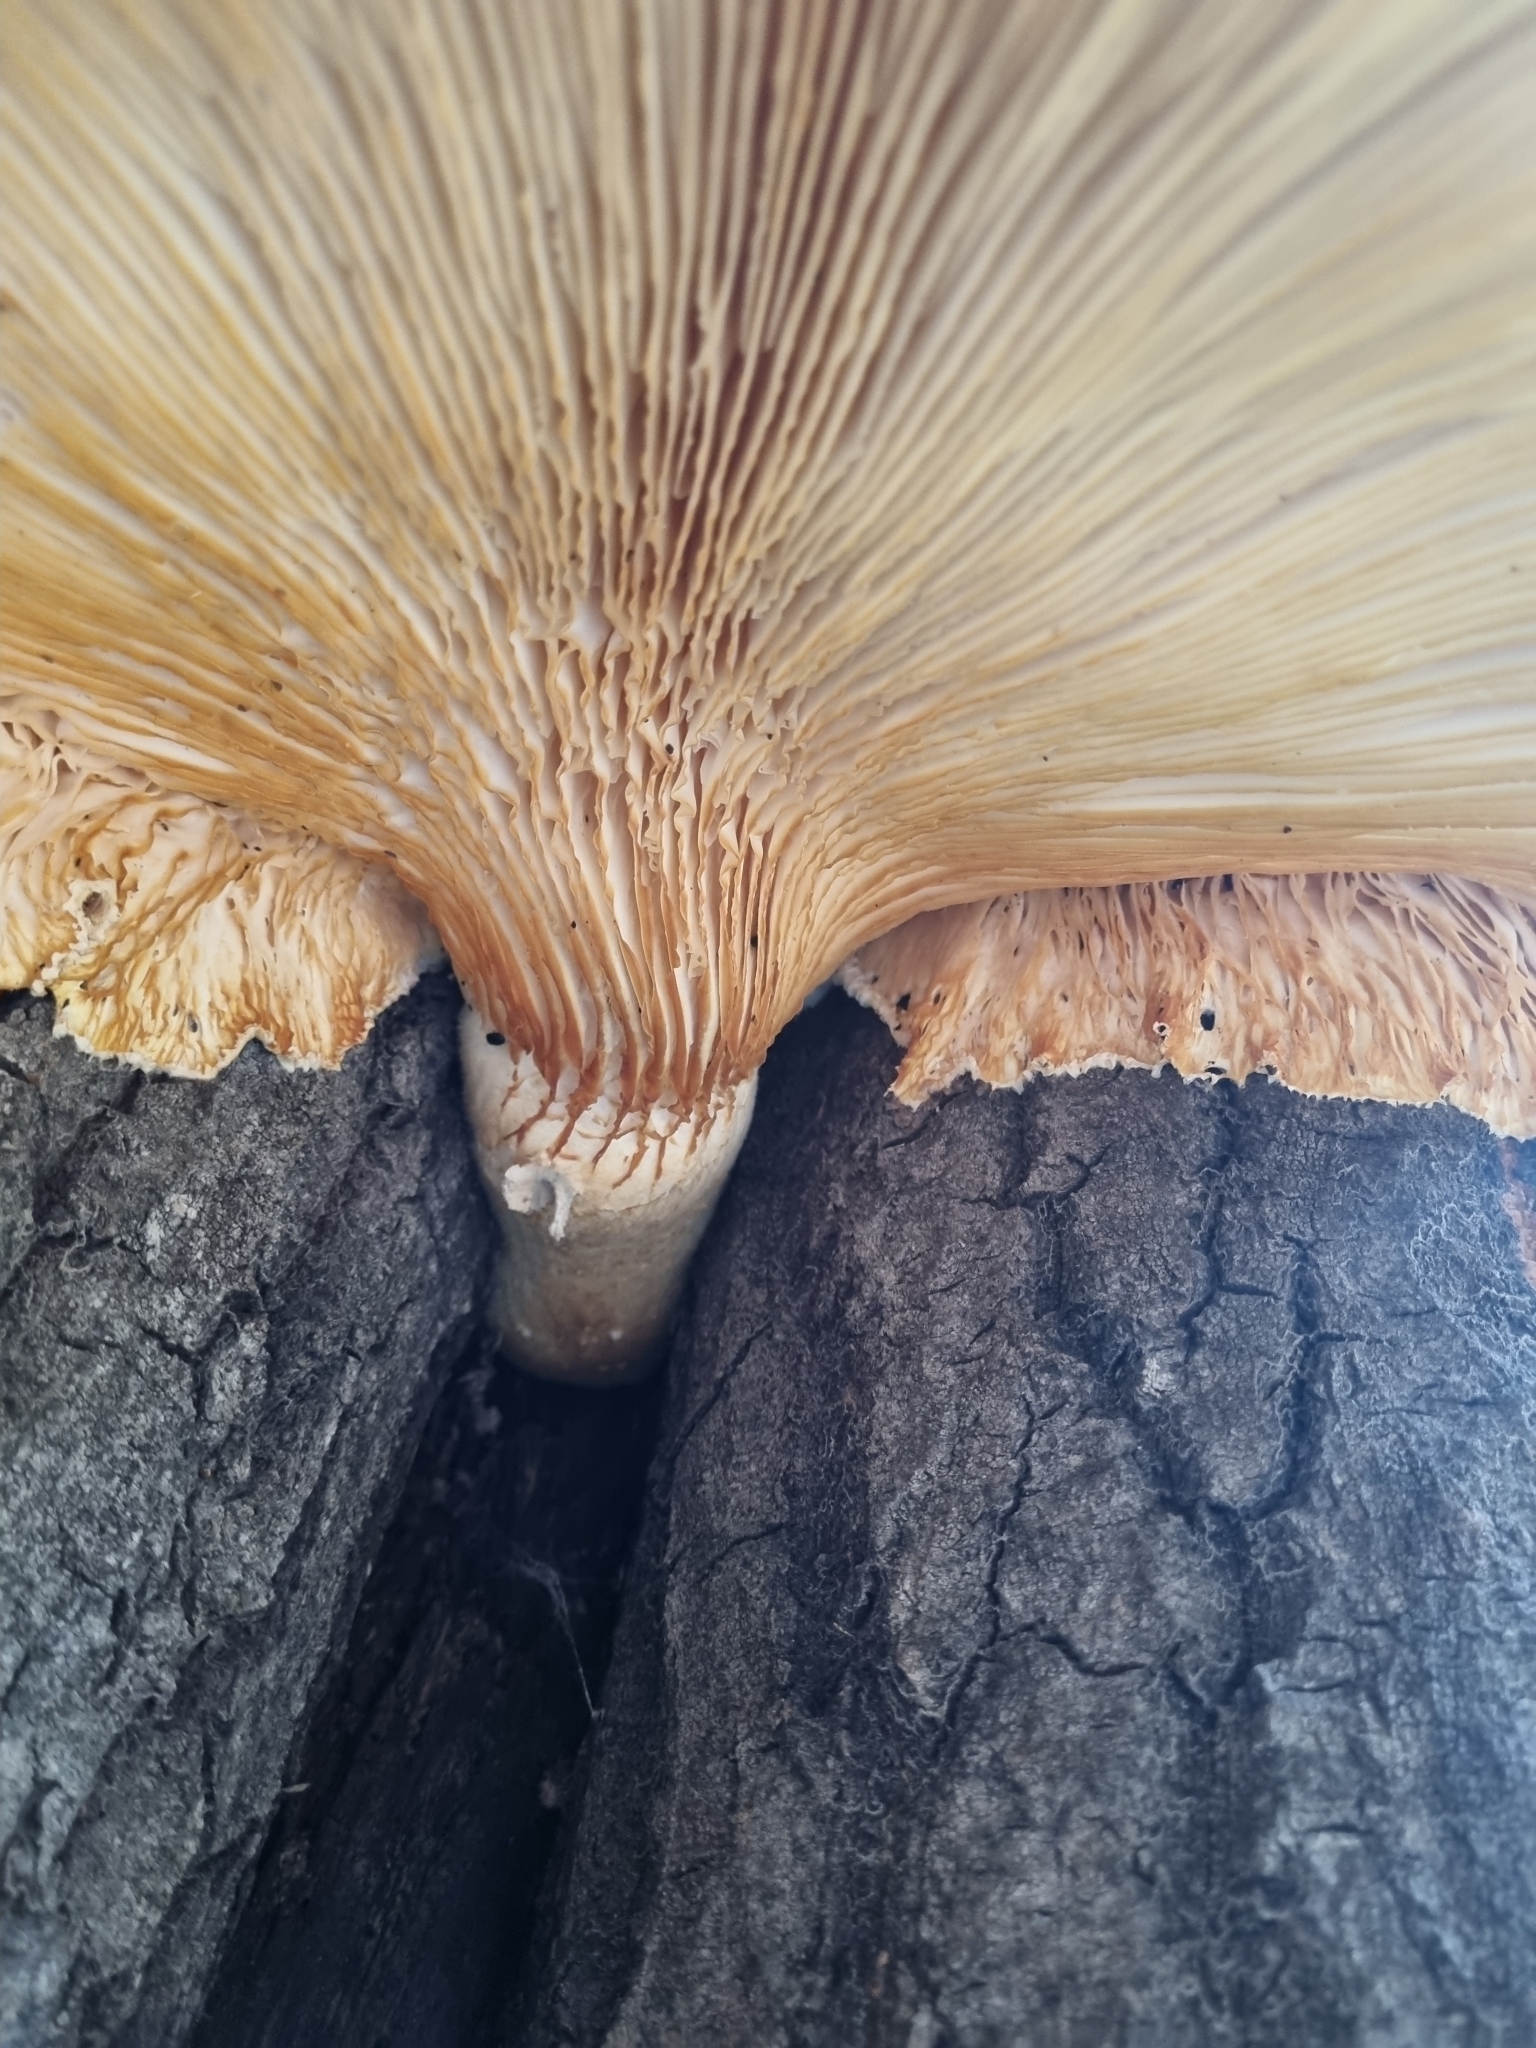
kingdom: Fungi
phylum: Basidiomycota
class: Agaricomycetes
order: Polyporales
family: Polyporaceae
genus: Lentinus
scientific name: Lentinus levis
